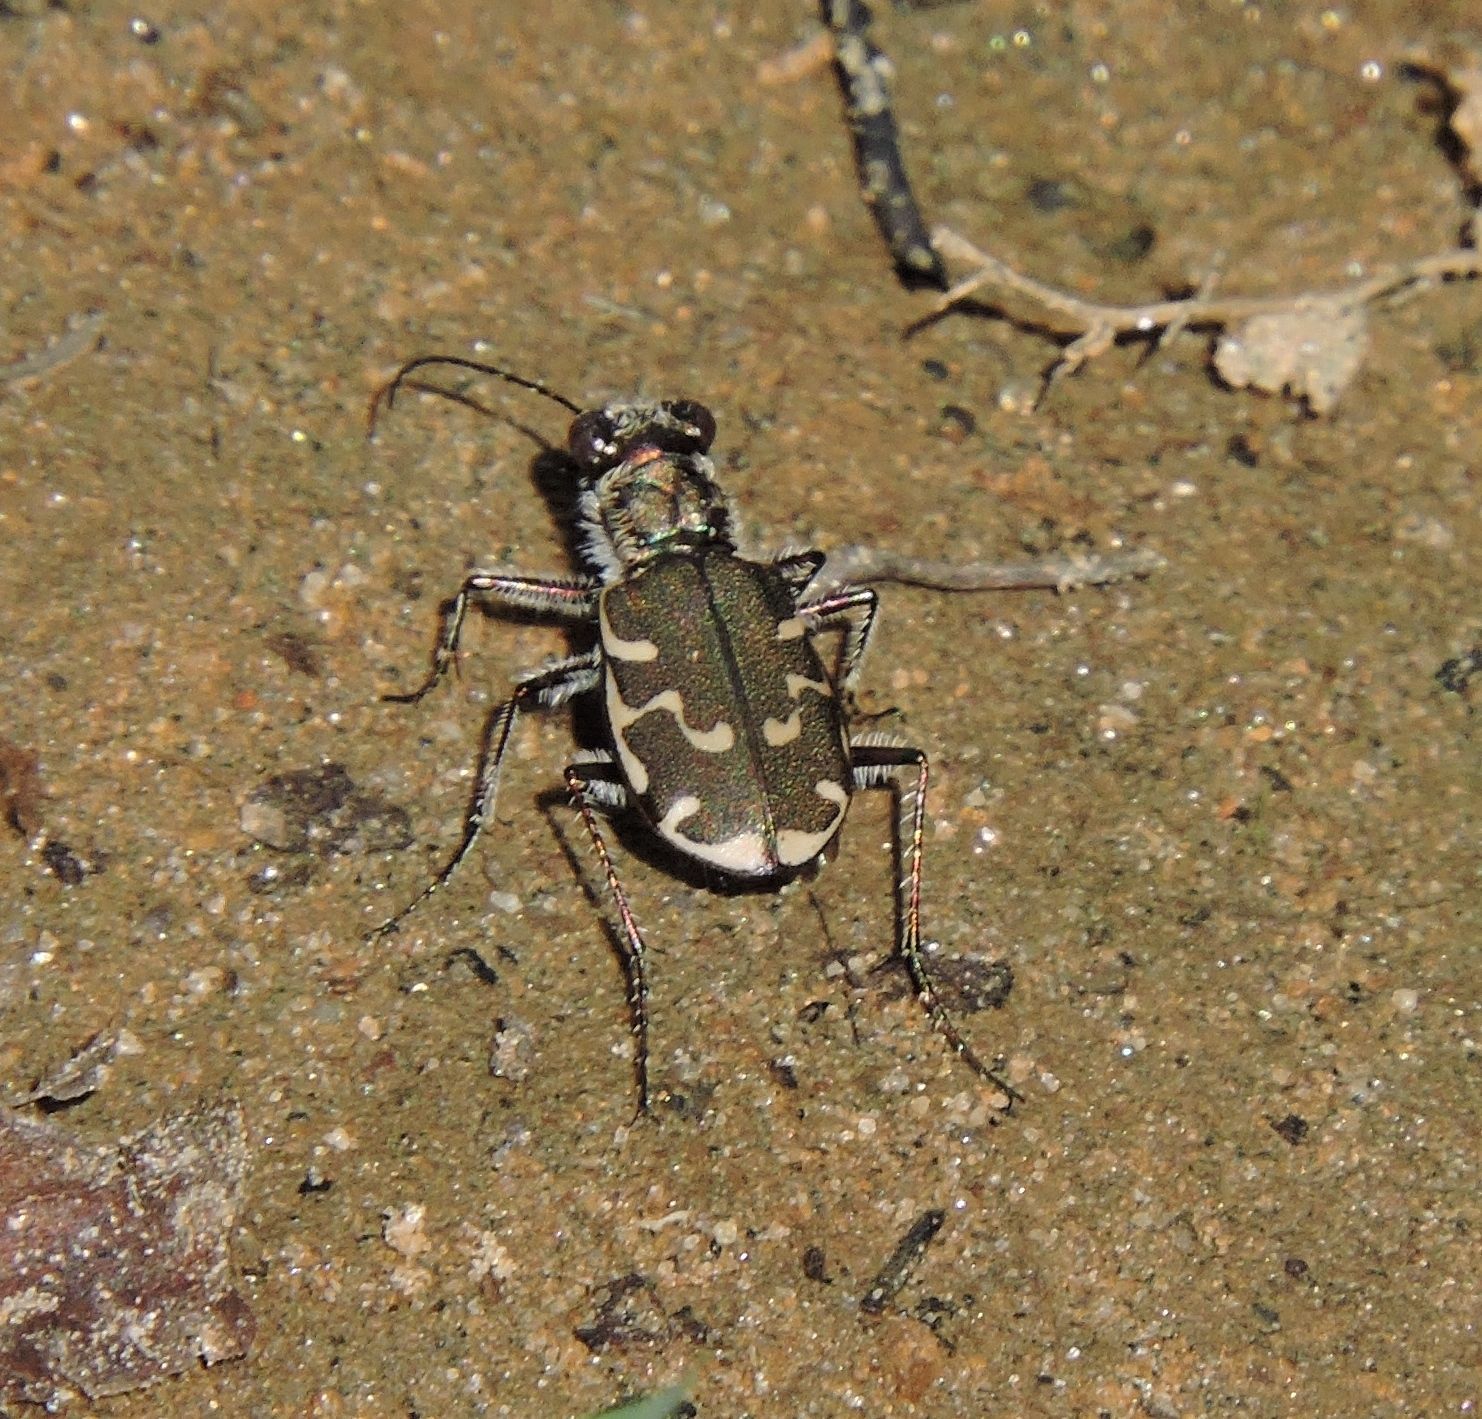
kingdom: Animalia
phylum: Arthropoda
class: Insecta
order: Coleoptera
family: Carabidae
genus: Cicindela
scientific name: Cicindela repanda
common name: Bronzed tiger beetle
